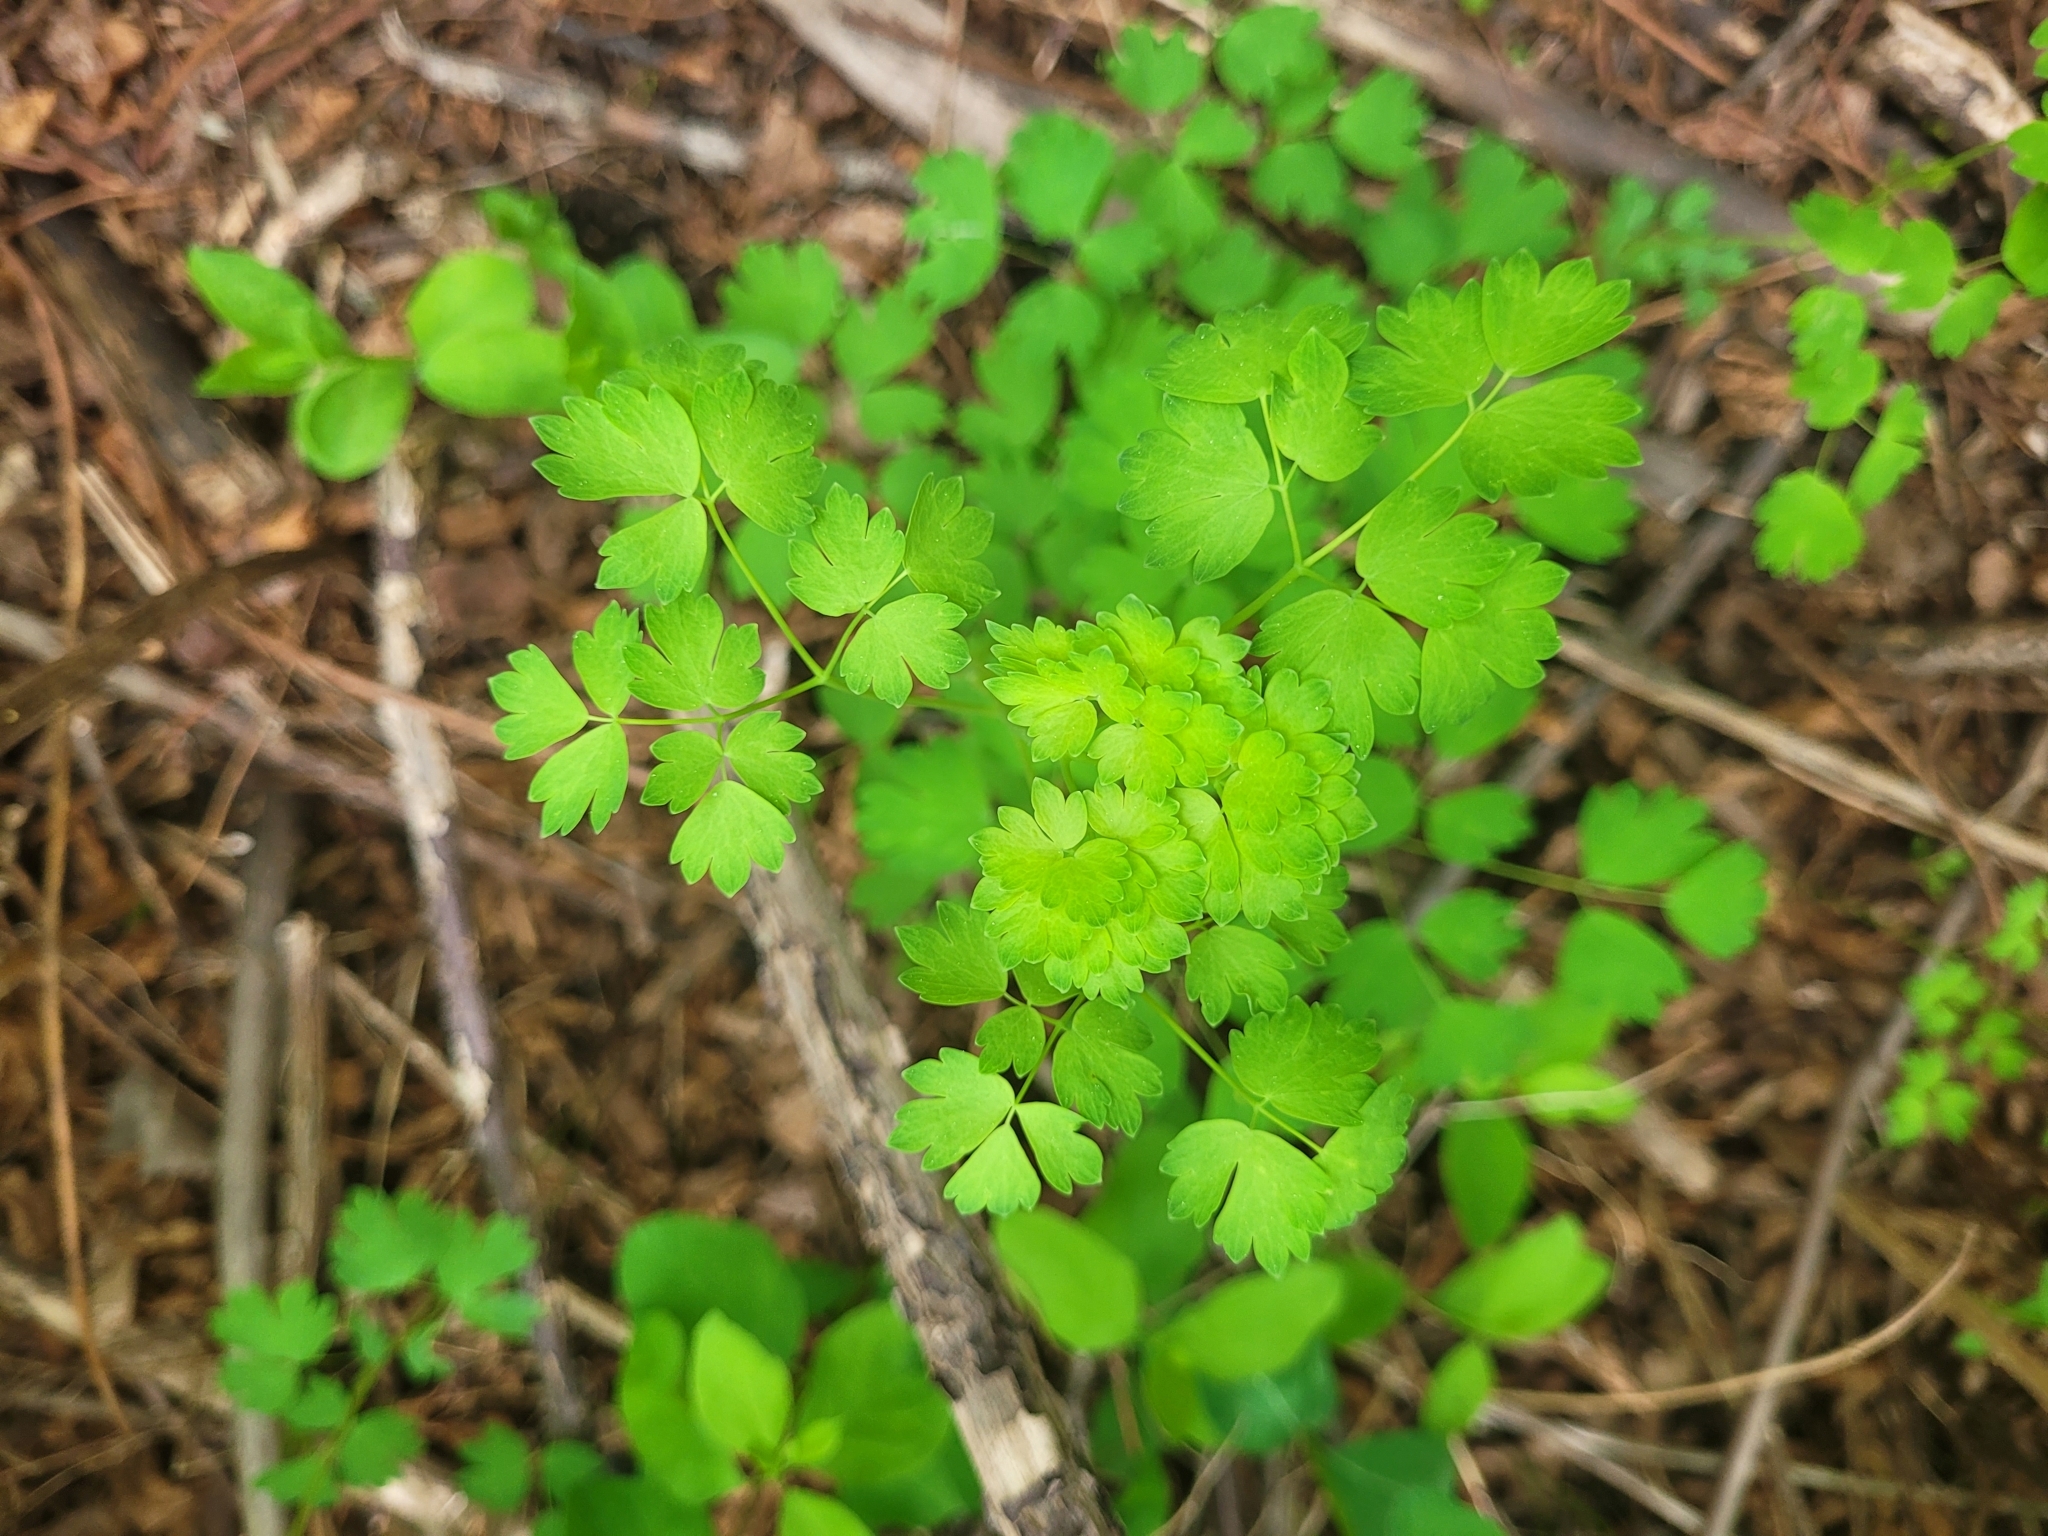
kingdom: Plantae
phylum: Tracheophyta
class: Magnoliopsida
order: Ranunculales
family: Ranunculaceae
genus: Thalictrum
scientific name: Thalictrum occidentale
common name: Western meadow-rue
